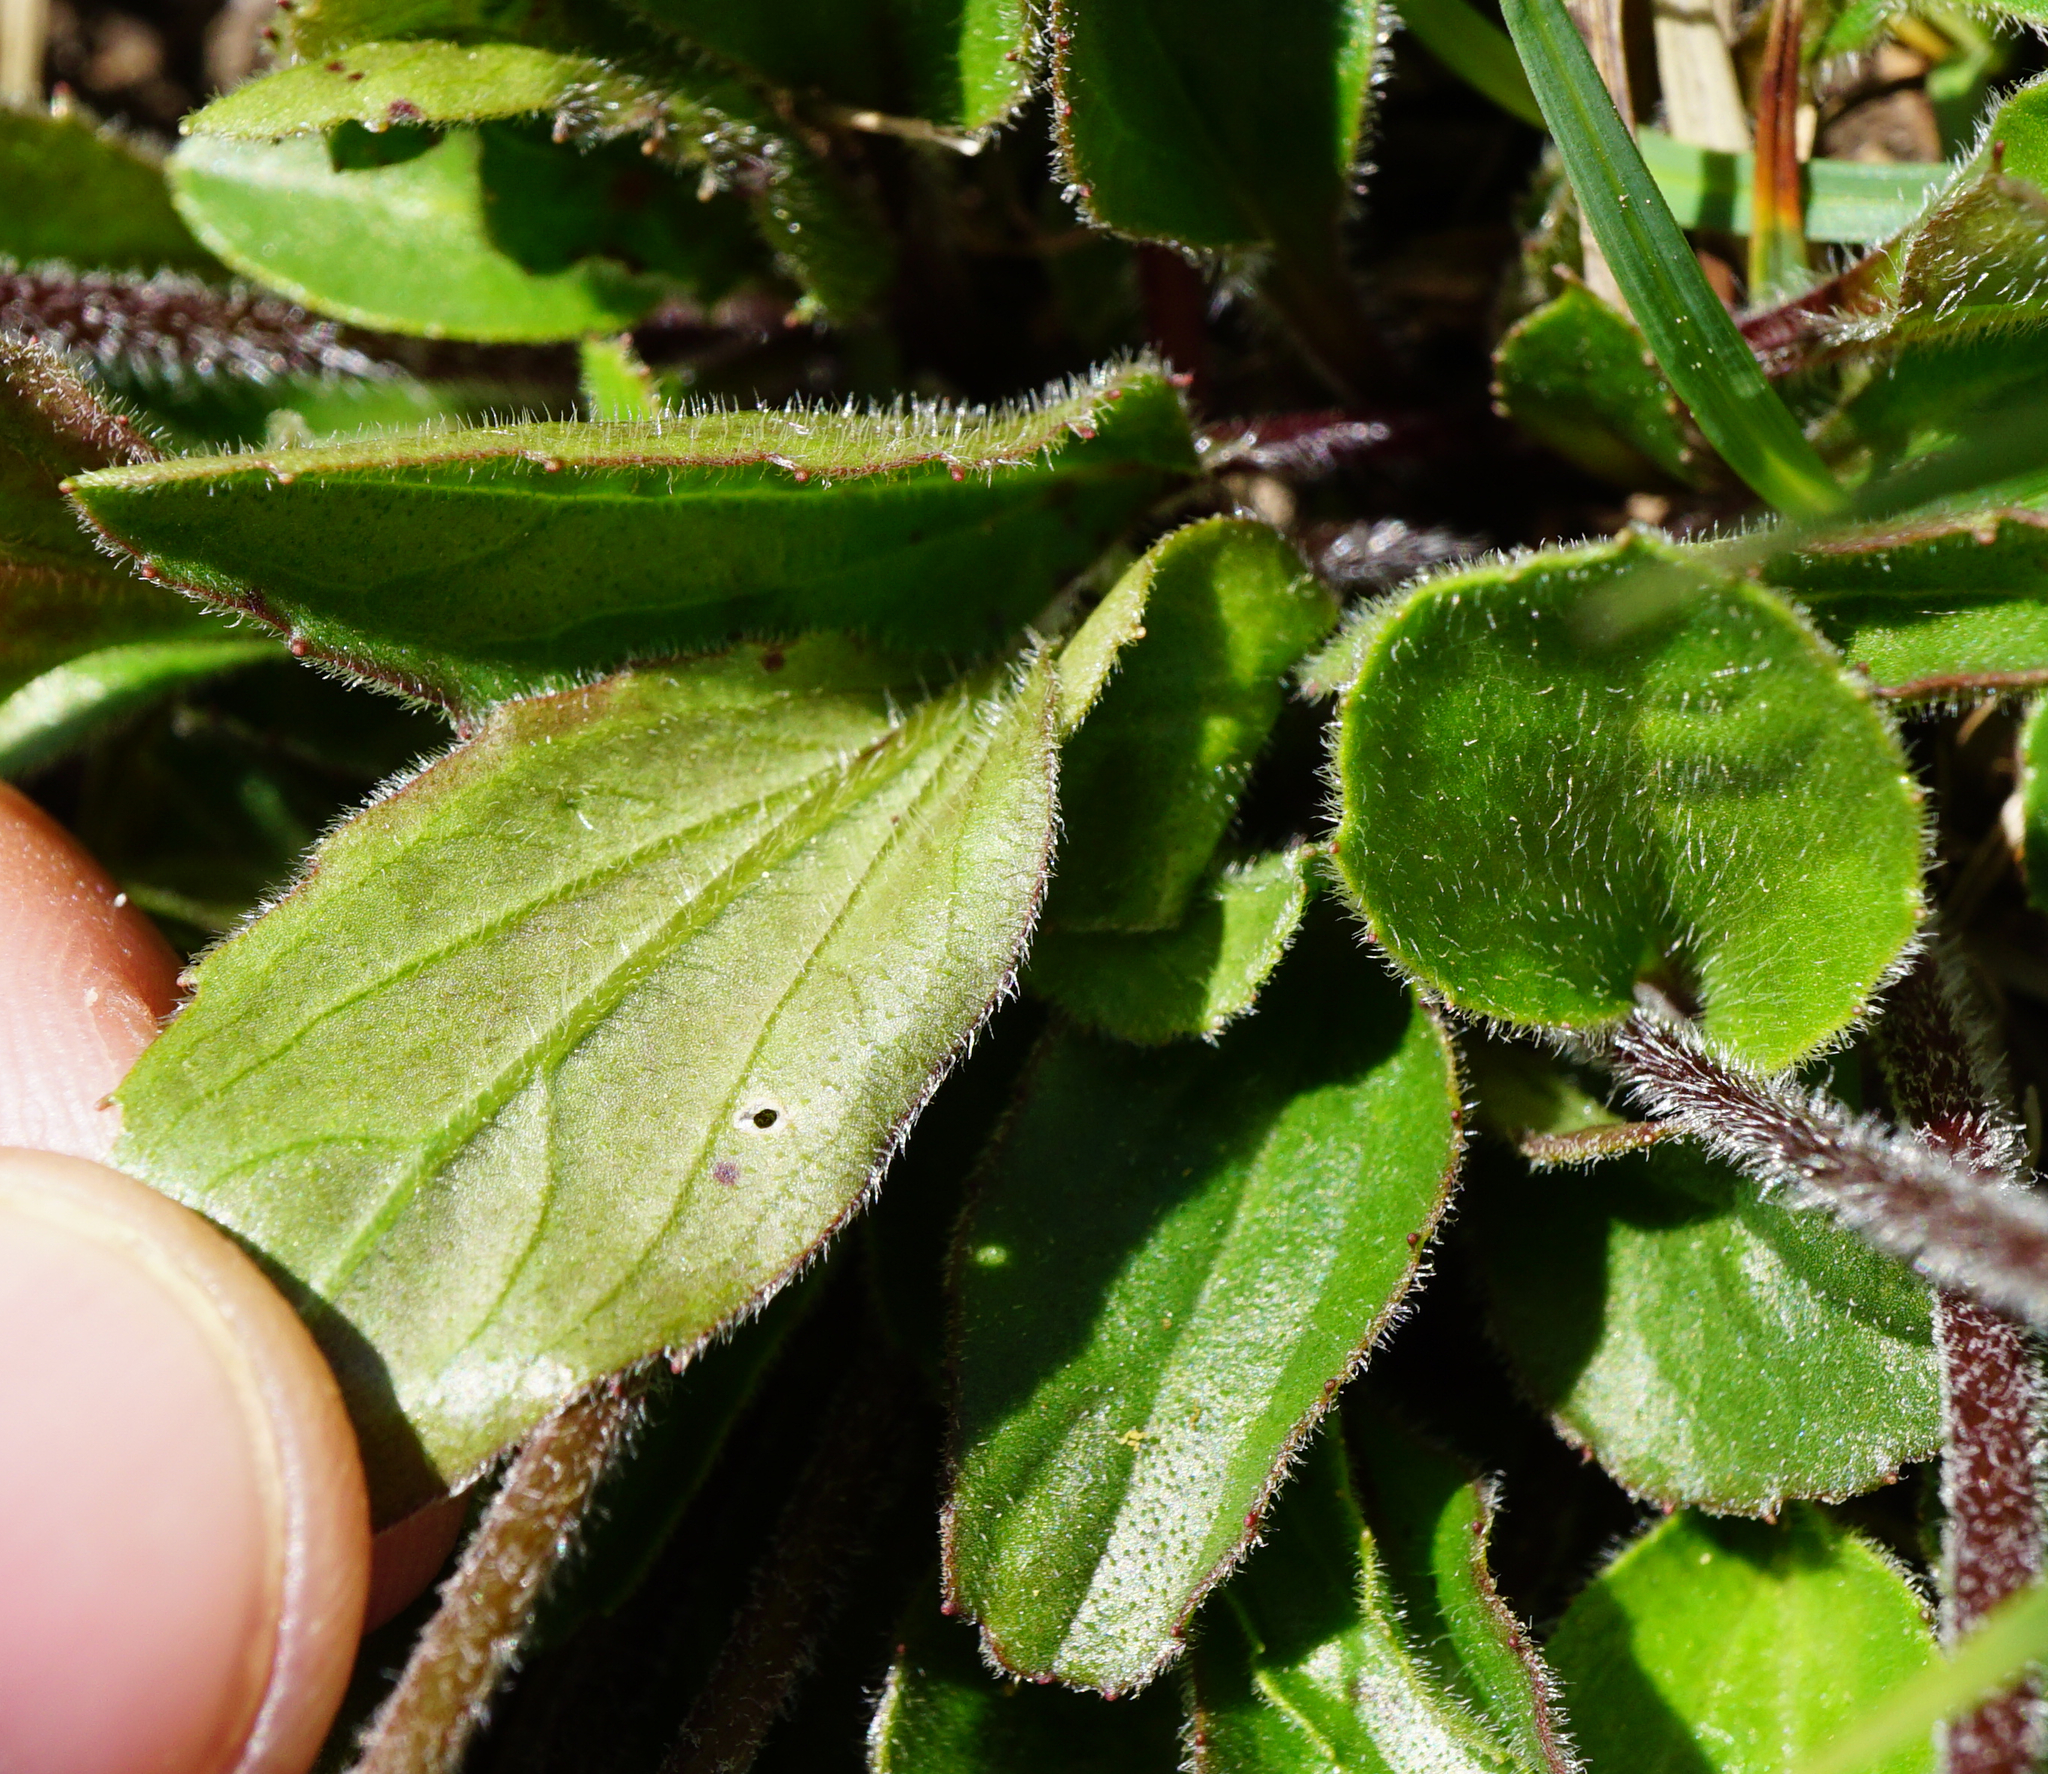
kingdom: Plantae
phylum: Tracheophyta
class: Magnoliopsida
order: Asterales
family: Asteraceae
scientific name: Asteraceae
